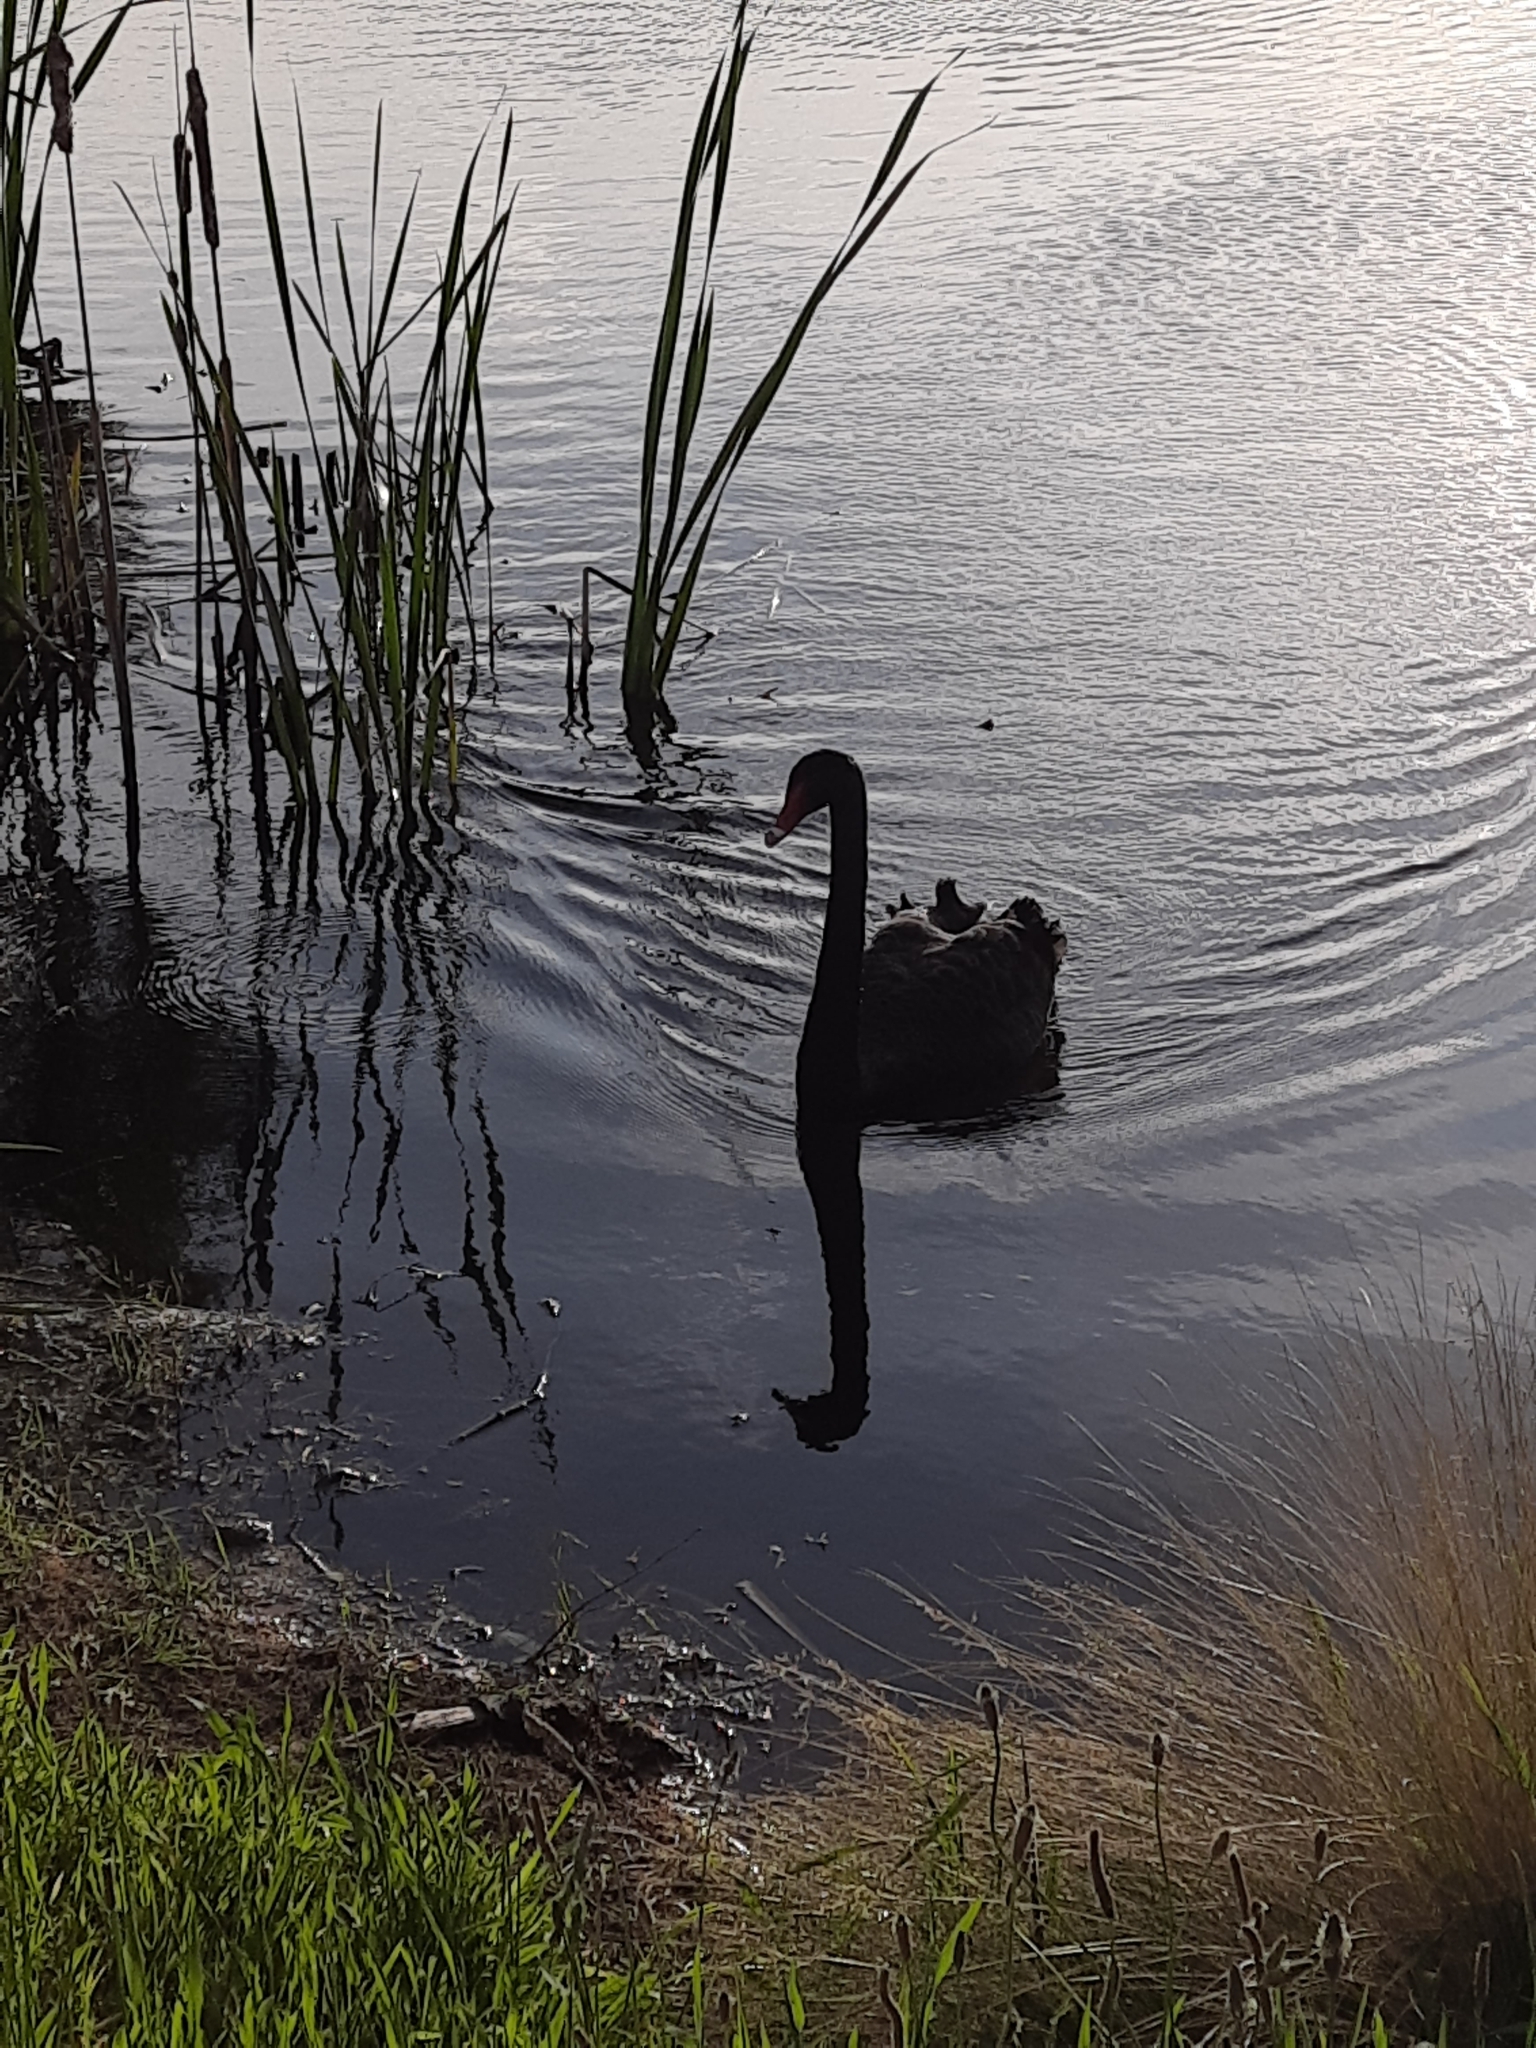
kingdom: Animalia
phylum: Chordata
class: Aves
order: Anseriformes
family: Anatidae
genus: Cygnus
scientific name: Cygnus atratus
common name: Black swan
